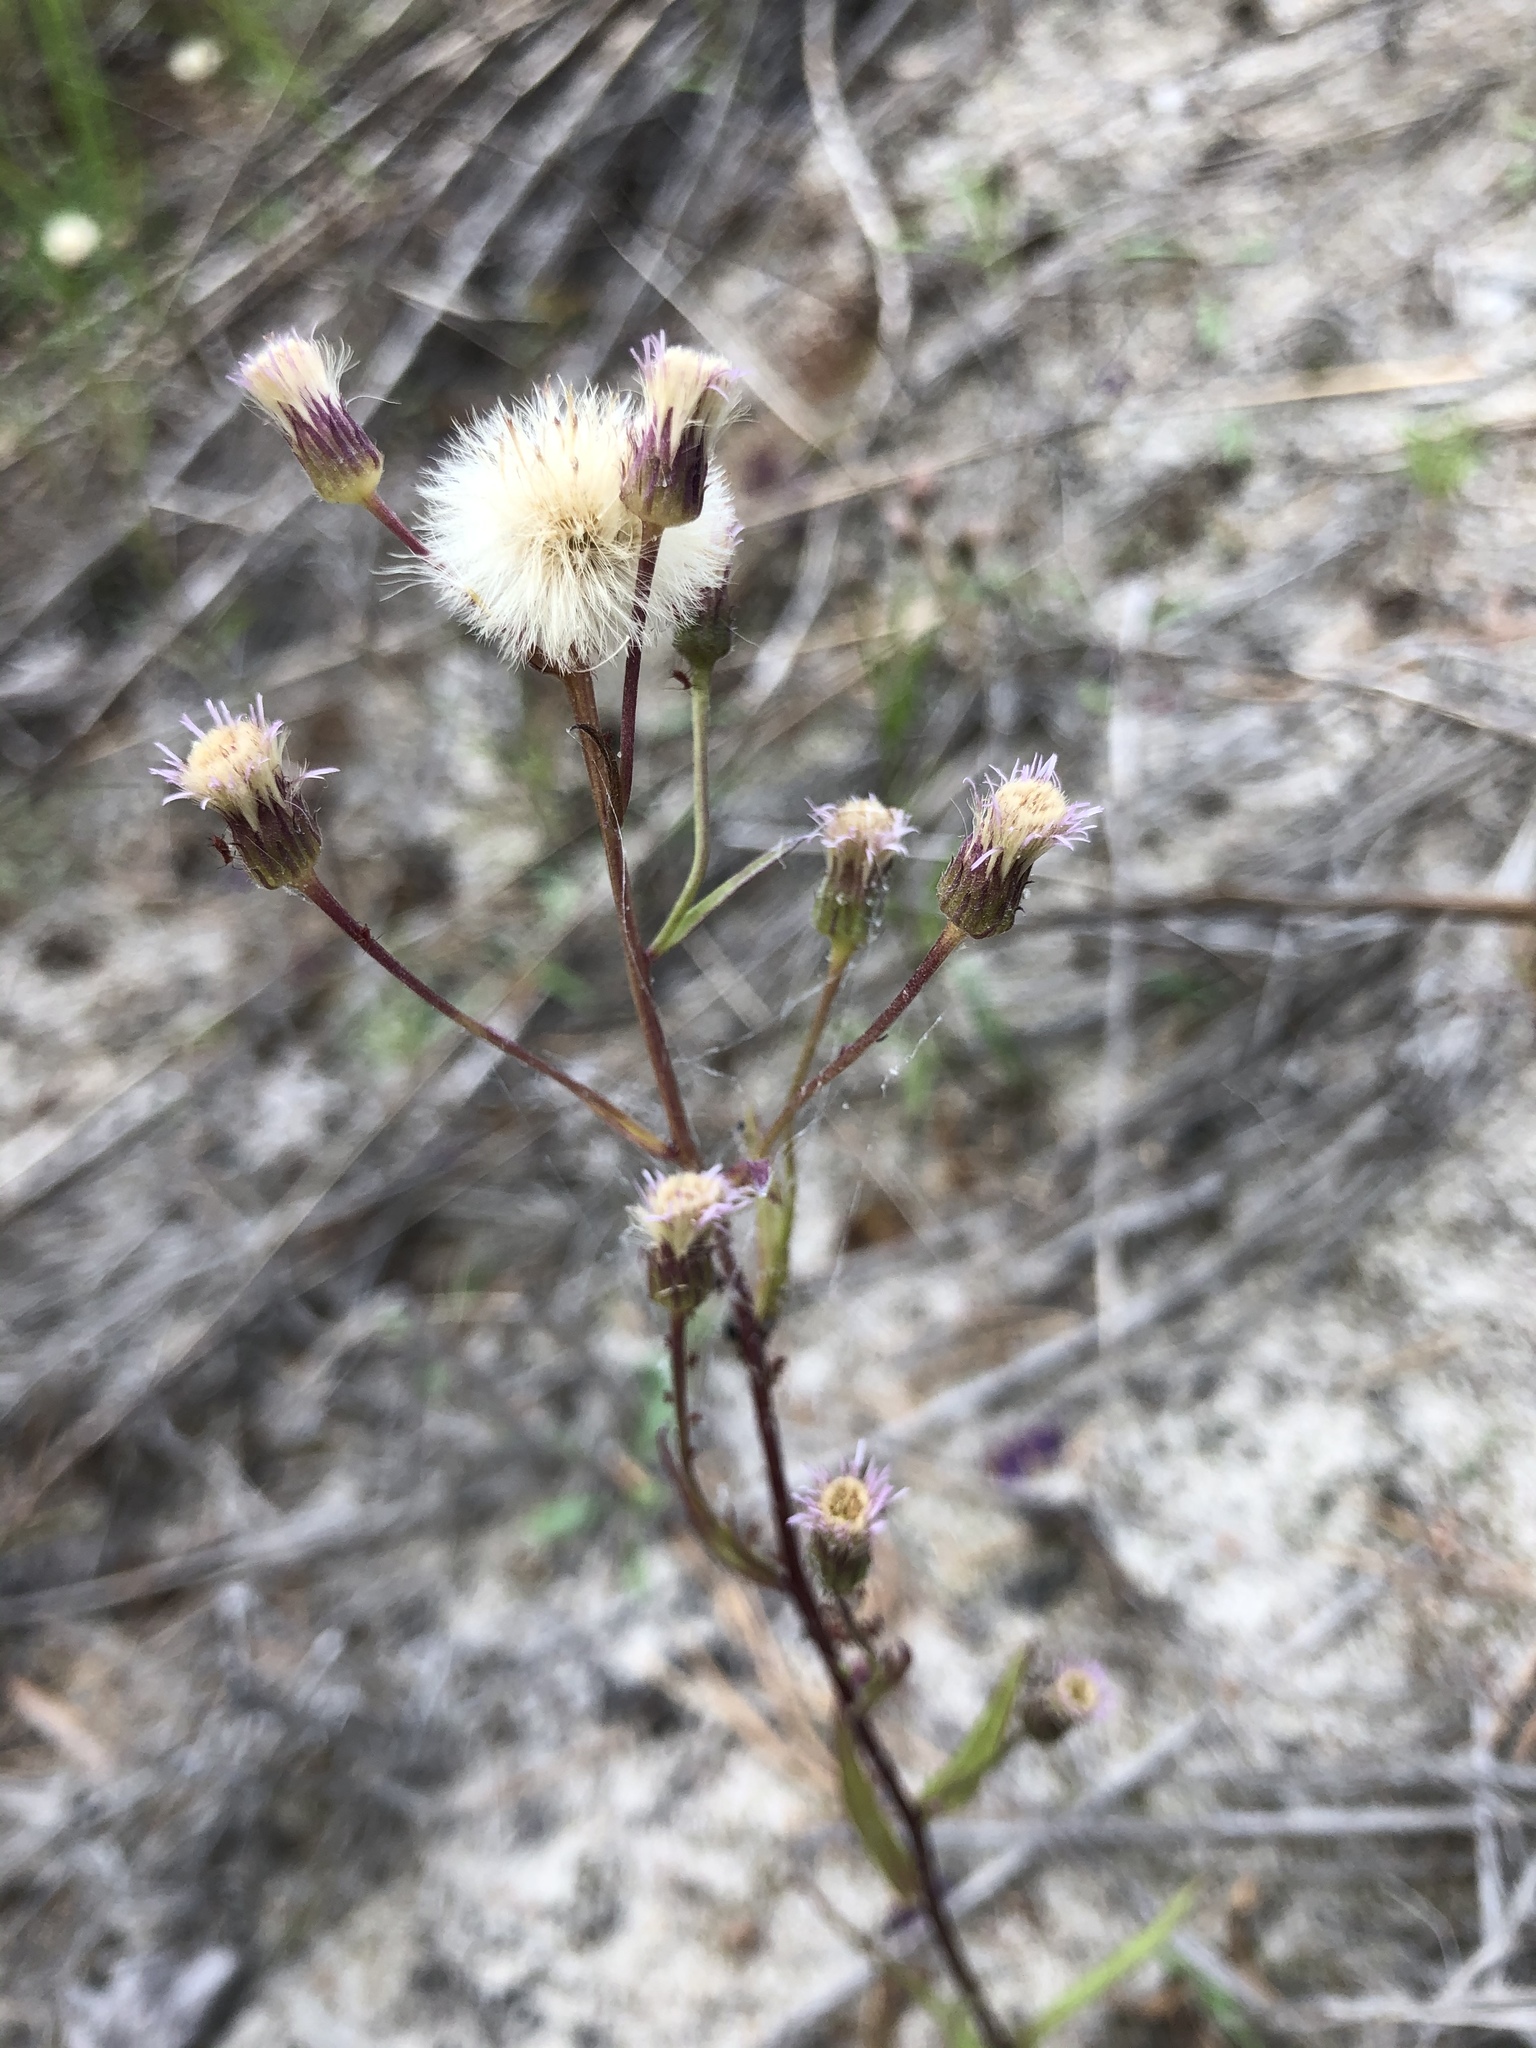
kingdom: Plantae
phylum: Tracheophyta
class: Magnoliopsida
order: Asterales
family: Asteraceae
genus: Erigeron
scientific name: Erigeron acris
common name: Blue fleabane
